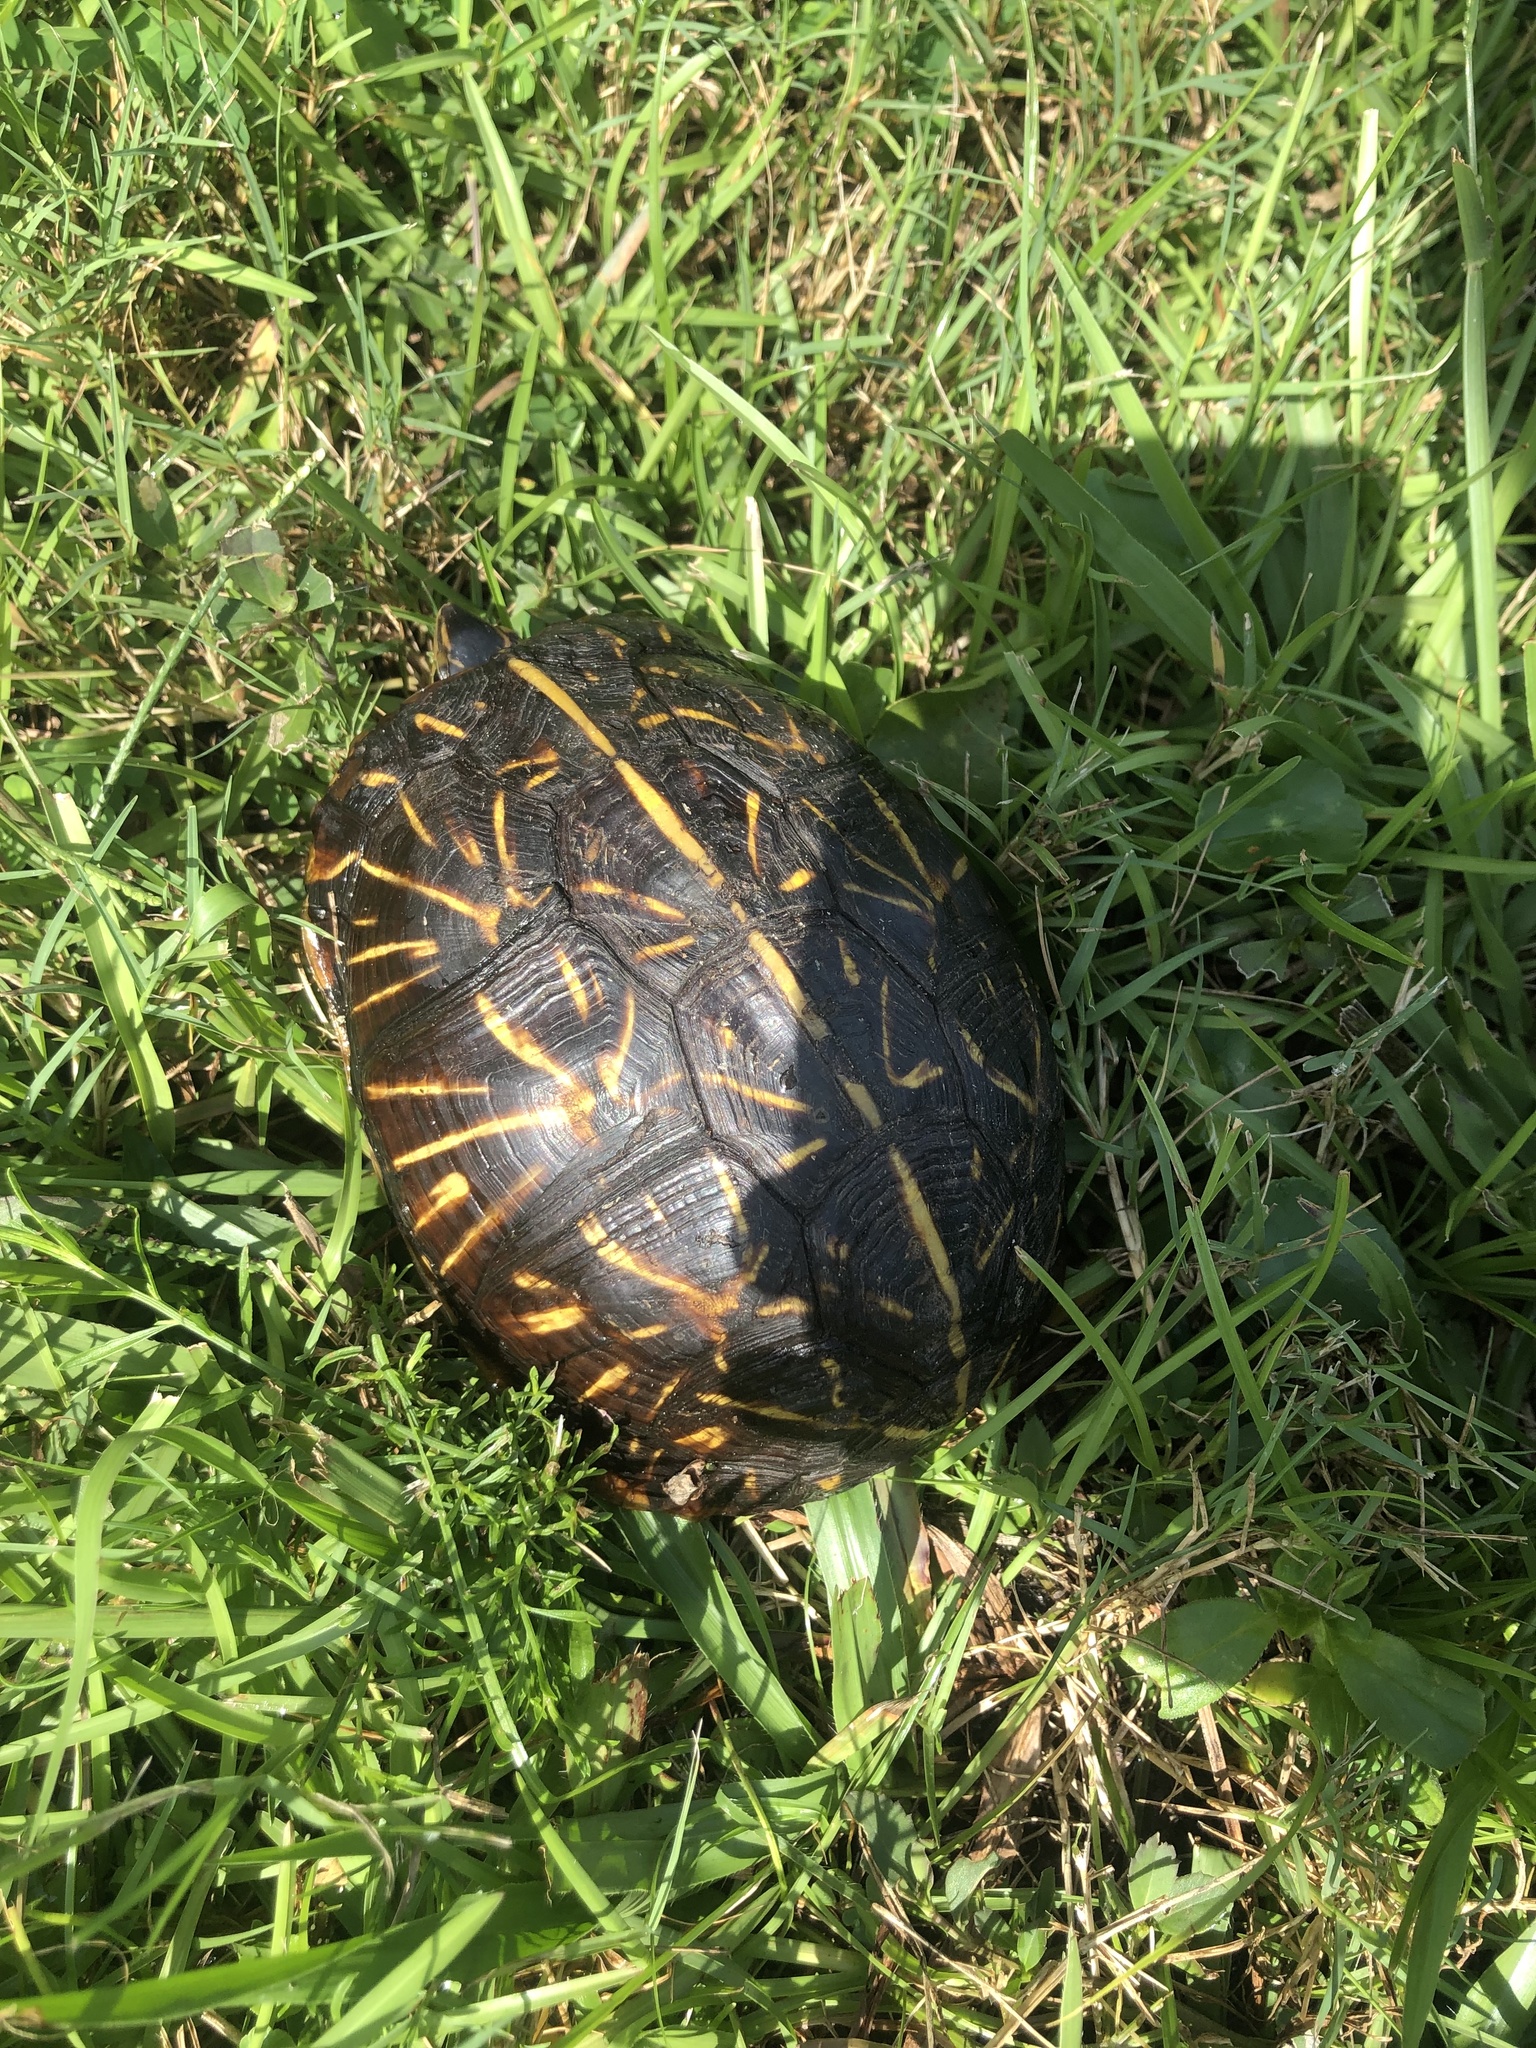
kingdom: Animalia
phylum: Chordata
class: Testudines
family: Emydidae
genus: Terrapene
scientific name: Terrapene carolina
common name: Common box turtle
